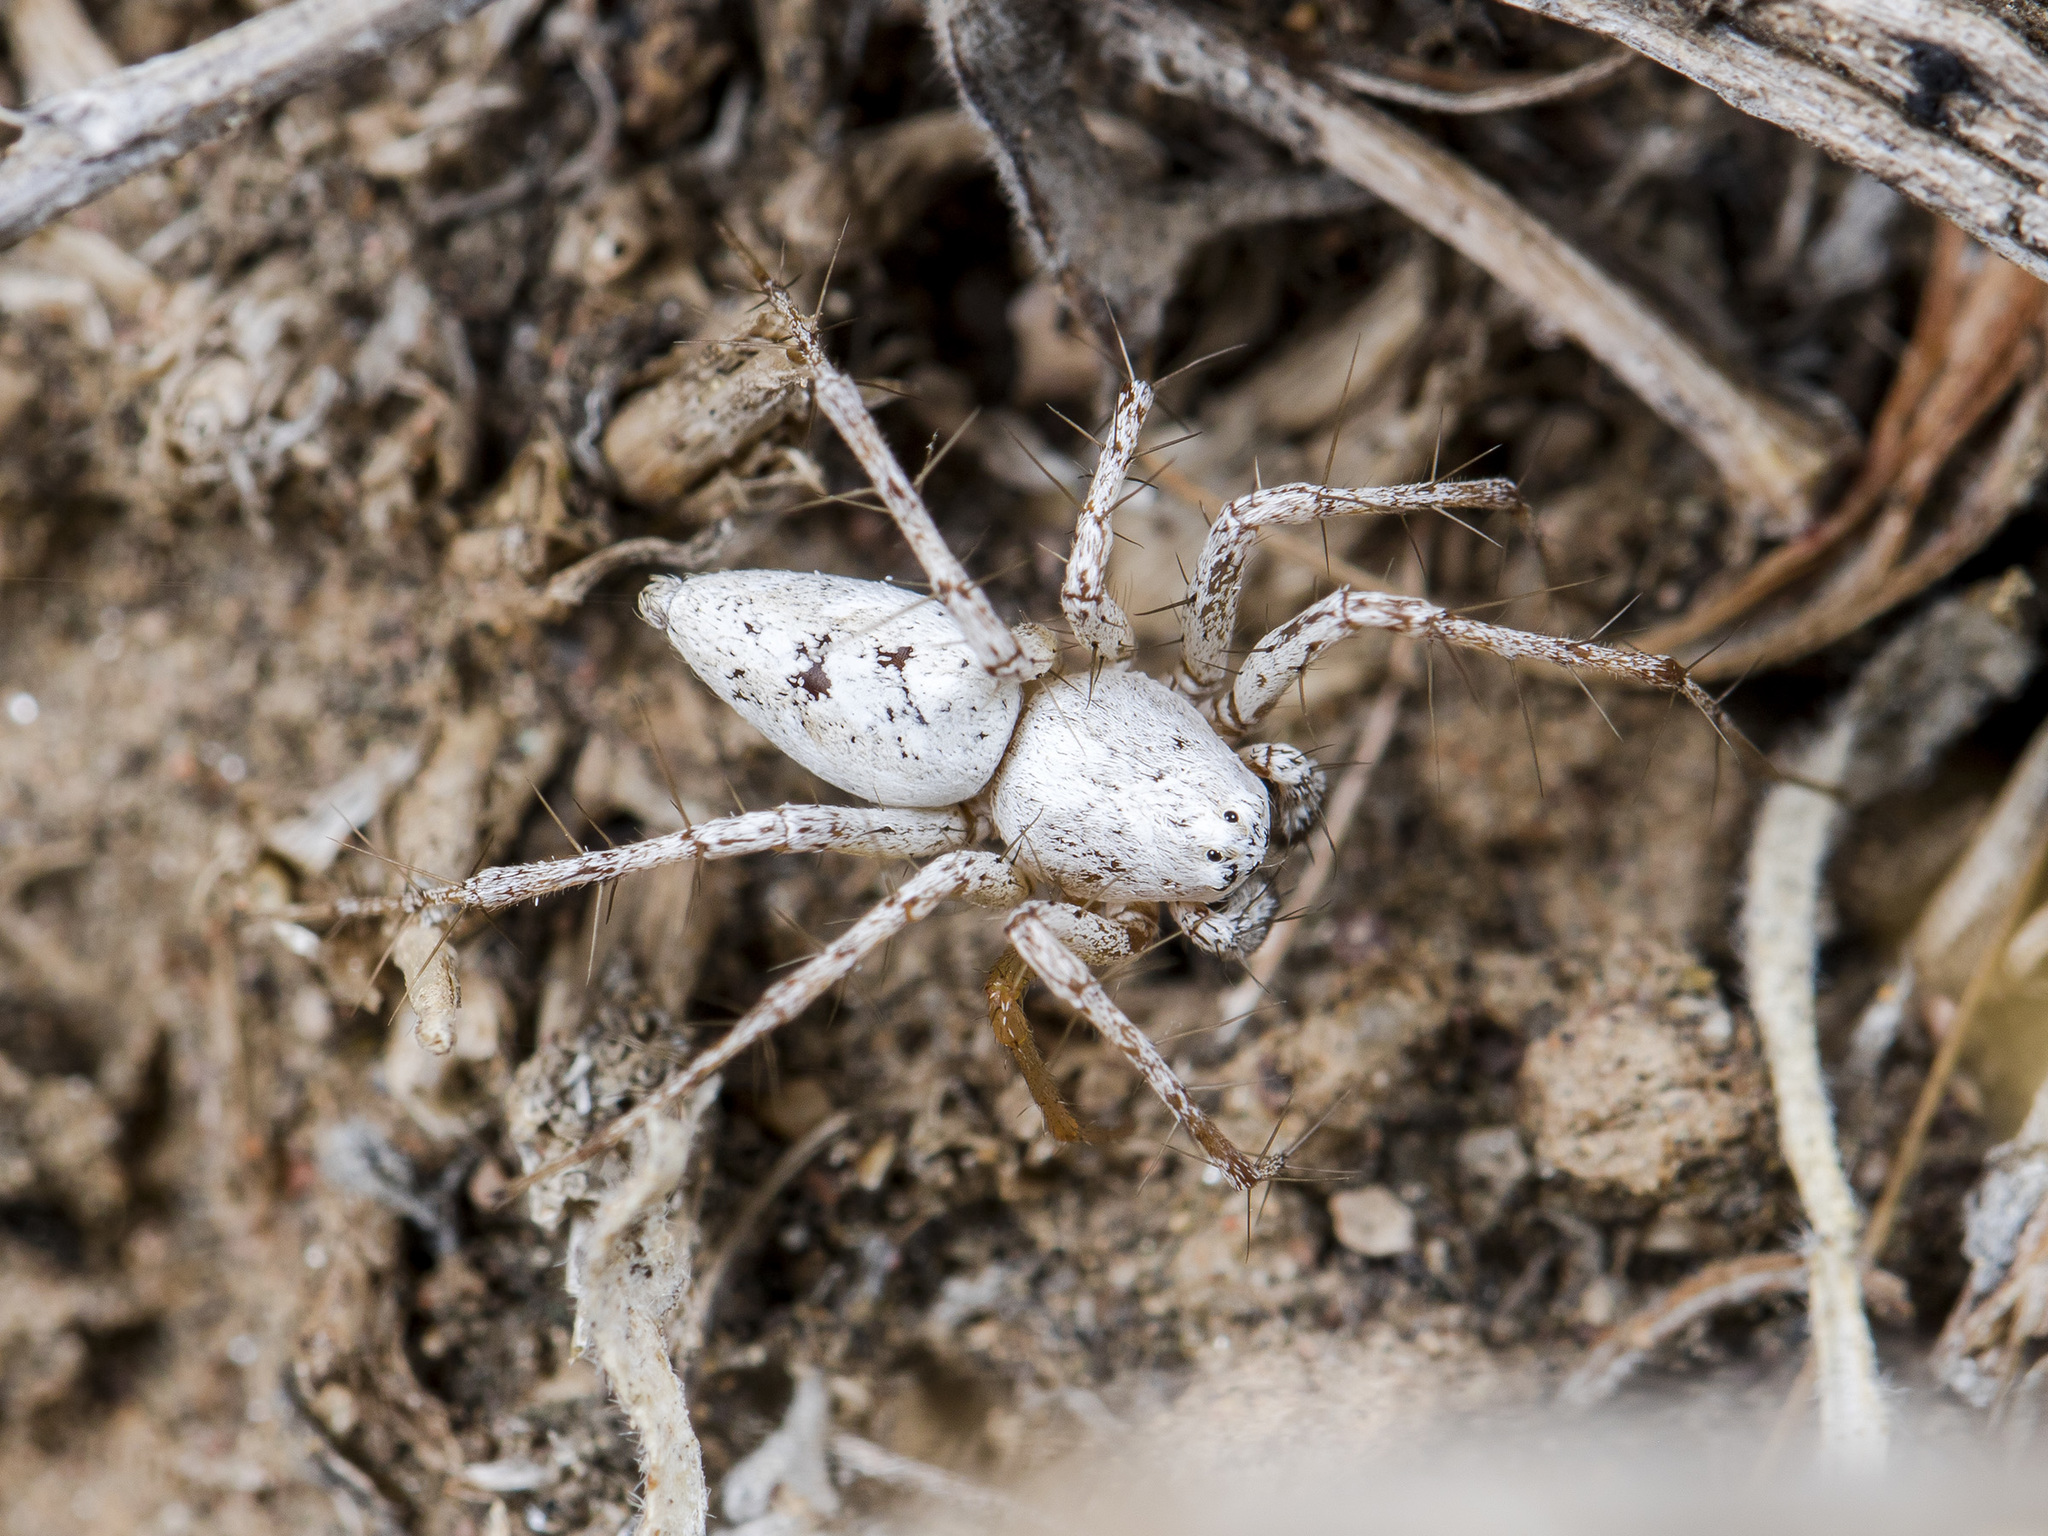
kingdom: Animalia
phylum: Arthropoda
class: Arachnida
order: Araneae
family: Oxyopidae
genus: Oxyopes
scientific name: Oxyopes globifer
